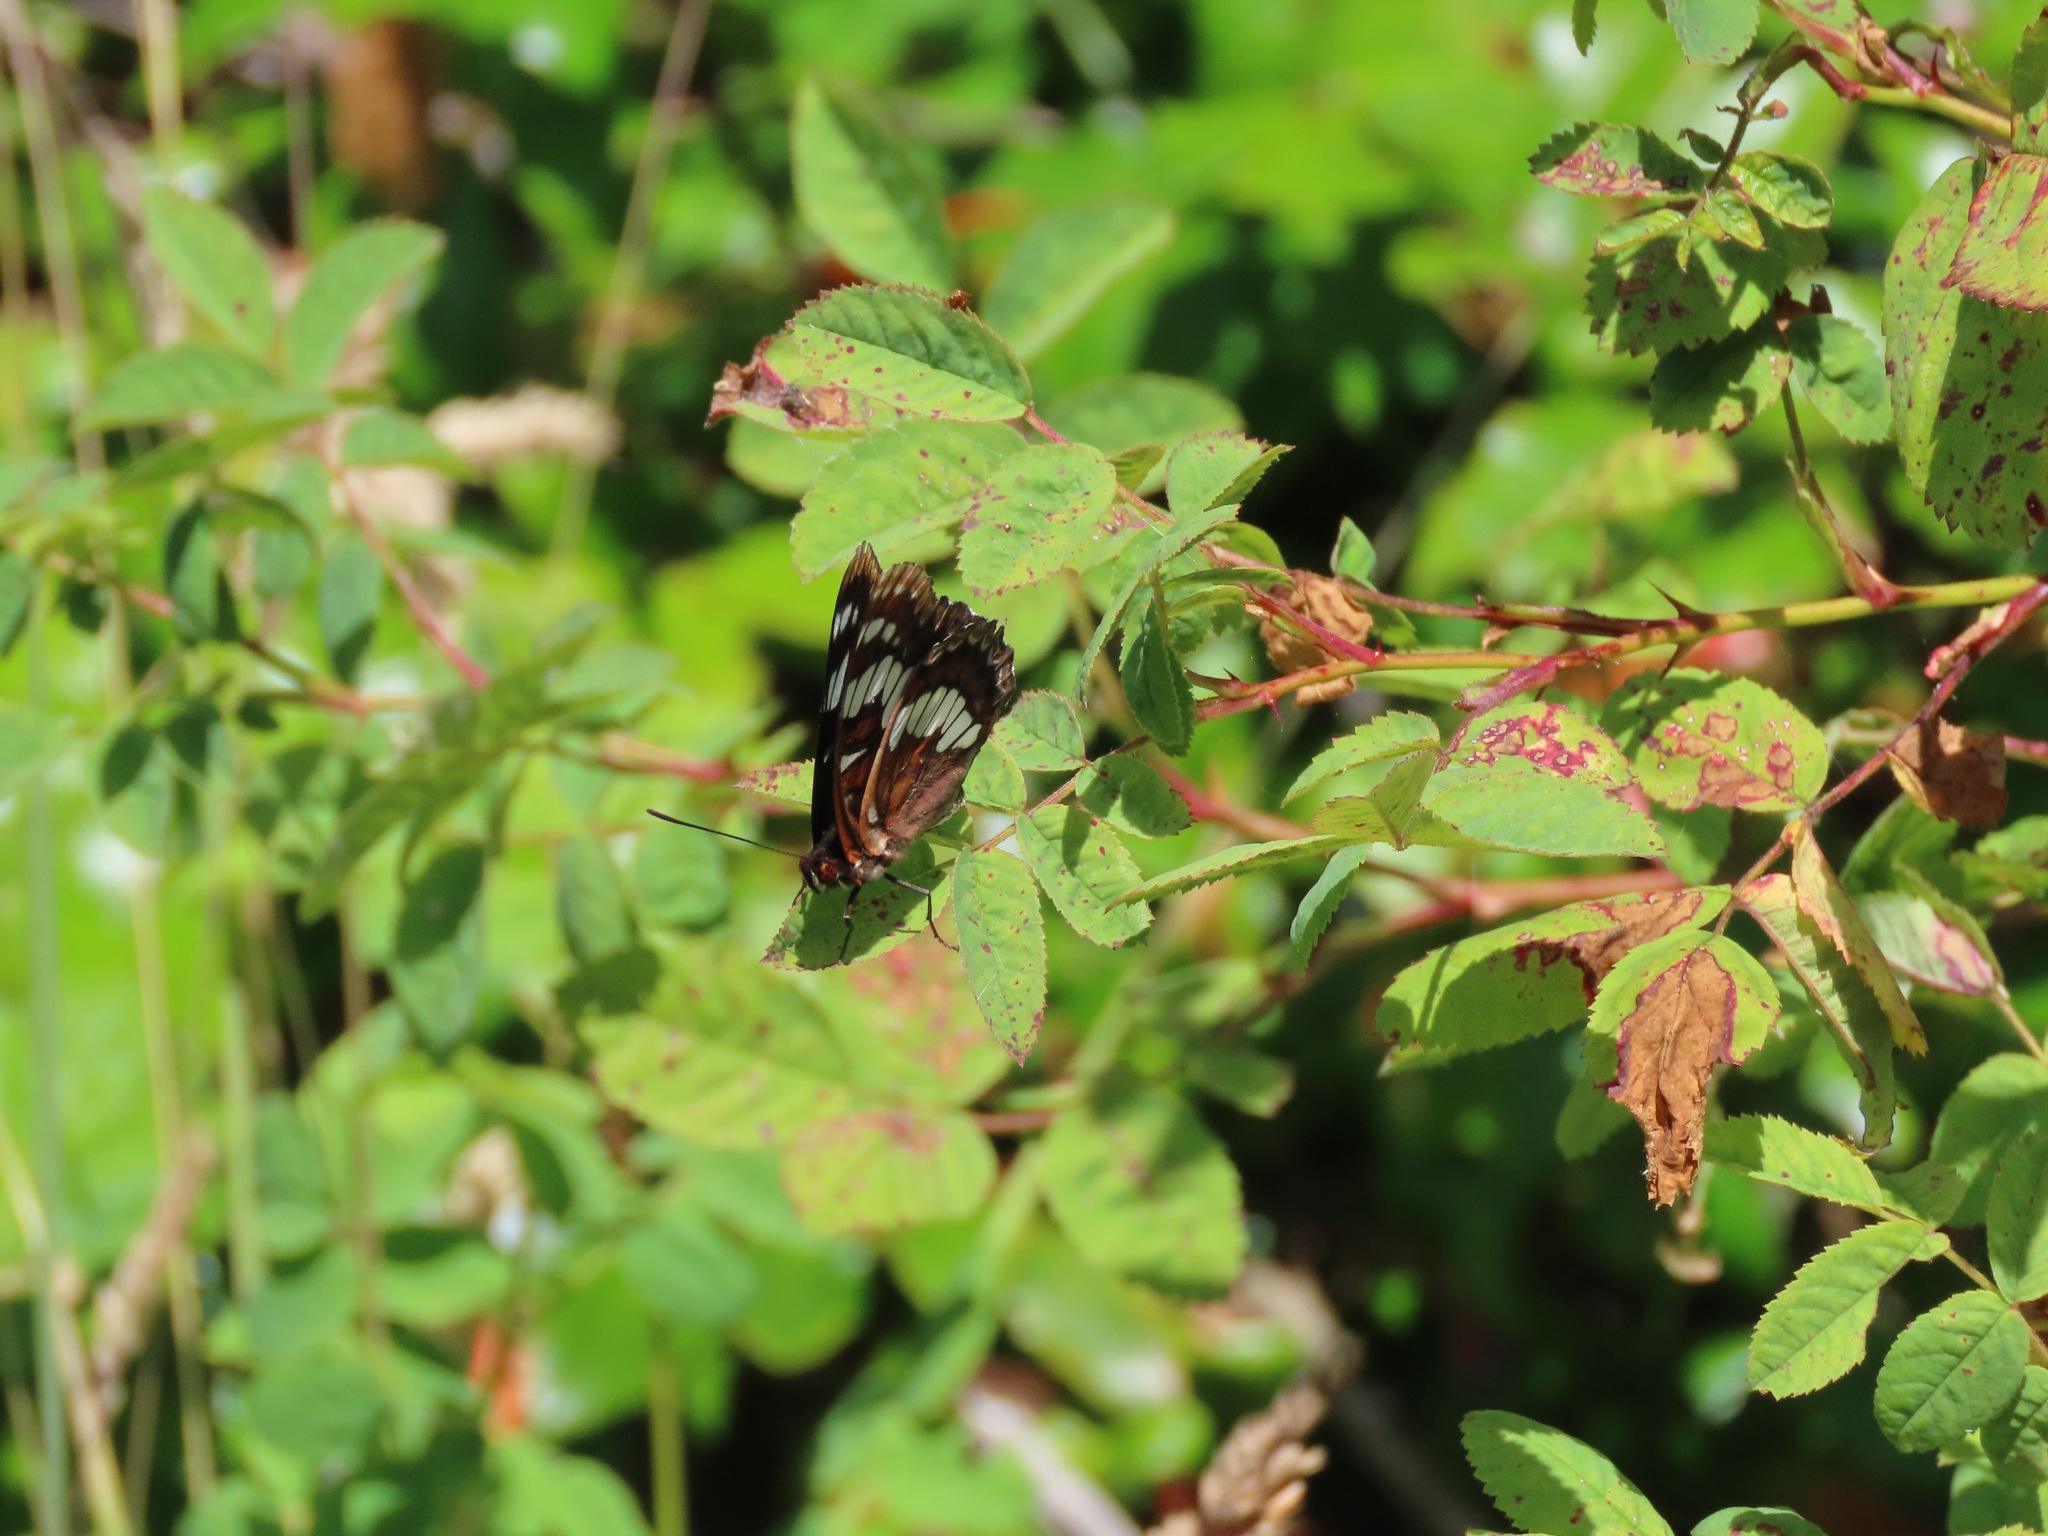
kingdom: Animalia
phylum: Arthropoda
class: Insecta
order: Lepidoptera
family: Nymphalidae
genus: Limenitis
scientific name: Limenitis lorquini
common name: Lorquin's admiral
